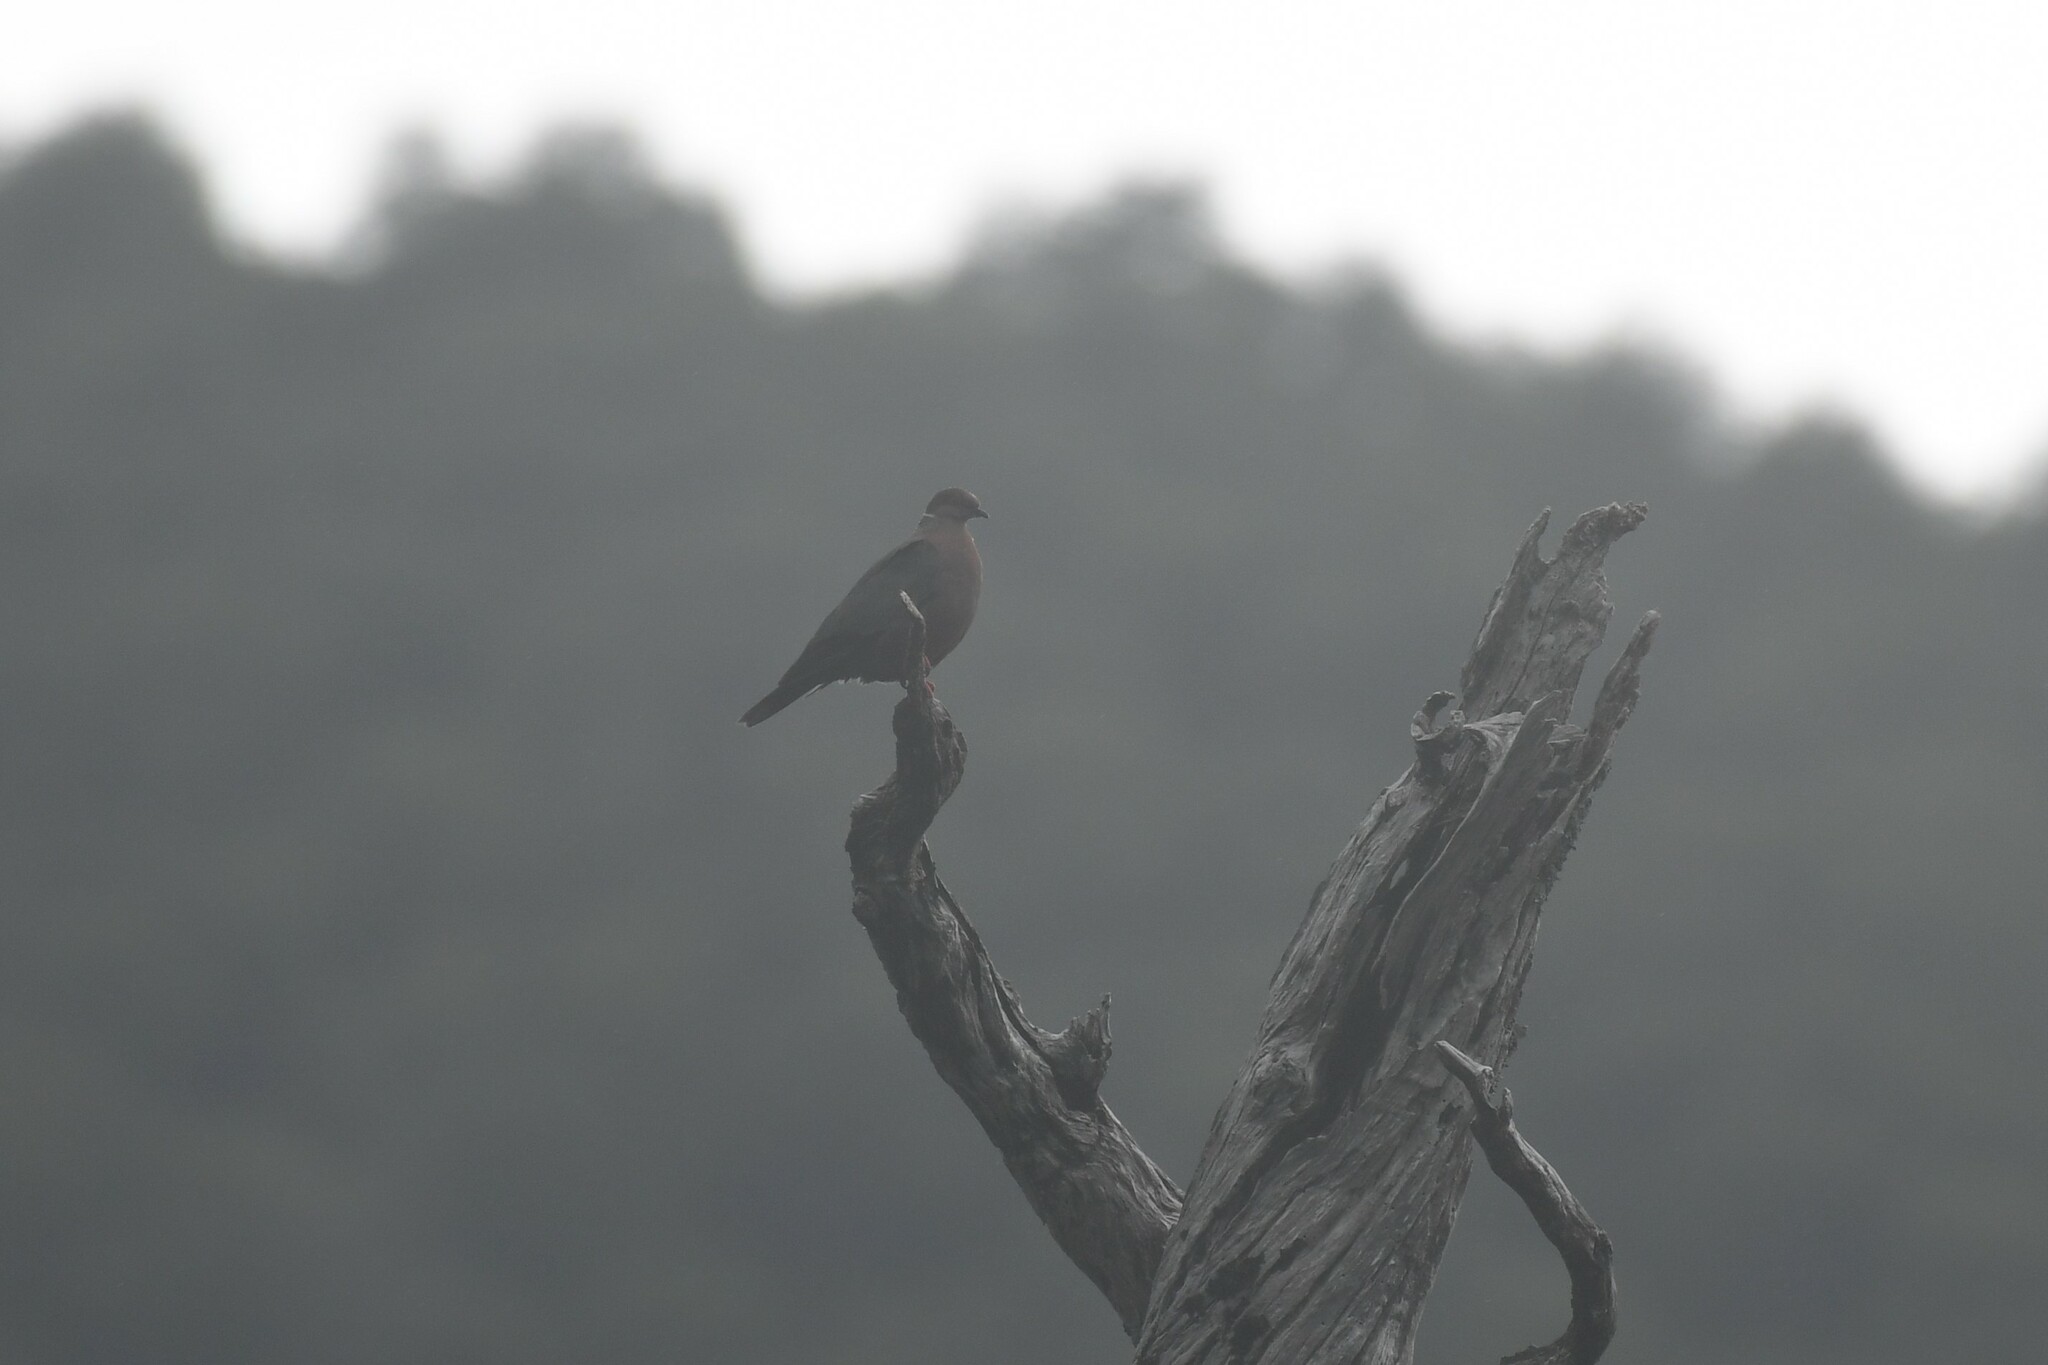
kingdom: Animalia
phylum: Chordata
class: Aves
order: Columbiformes
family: Columbidae
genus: Patagioenas
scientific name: Patagioenas araucana
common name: Chilean pigeon
